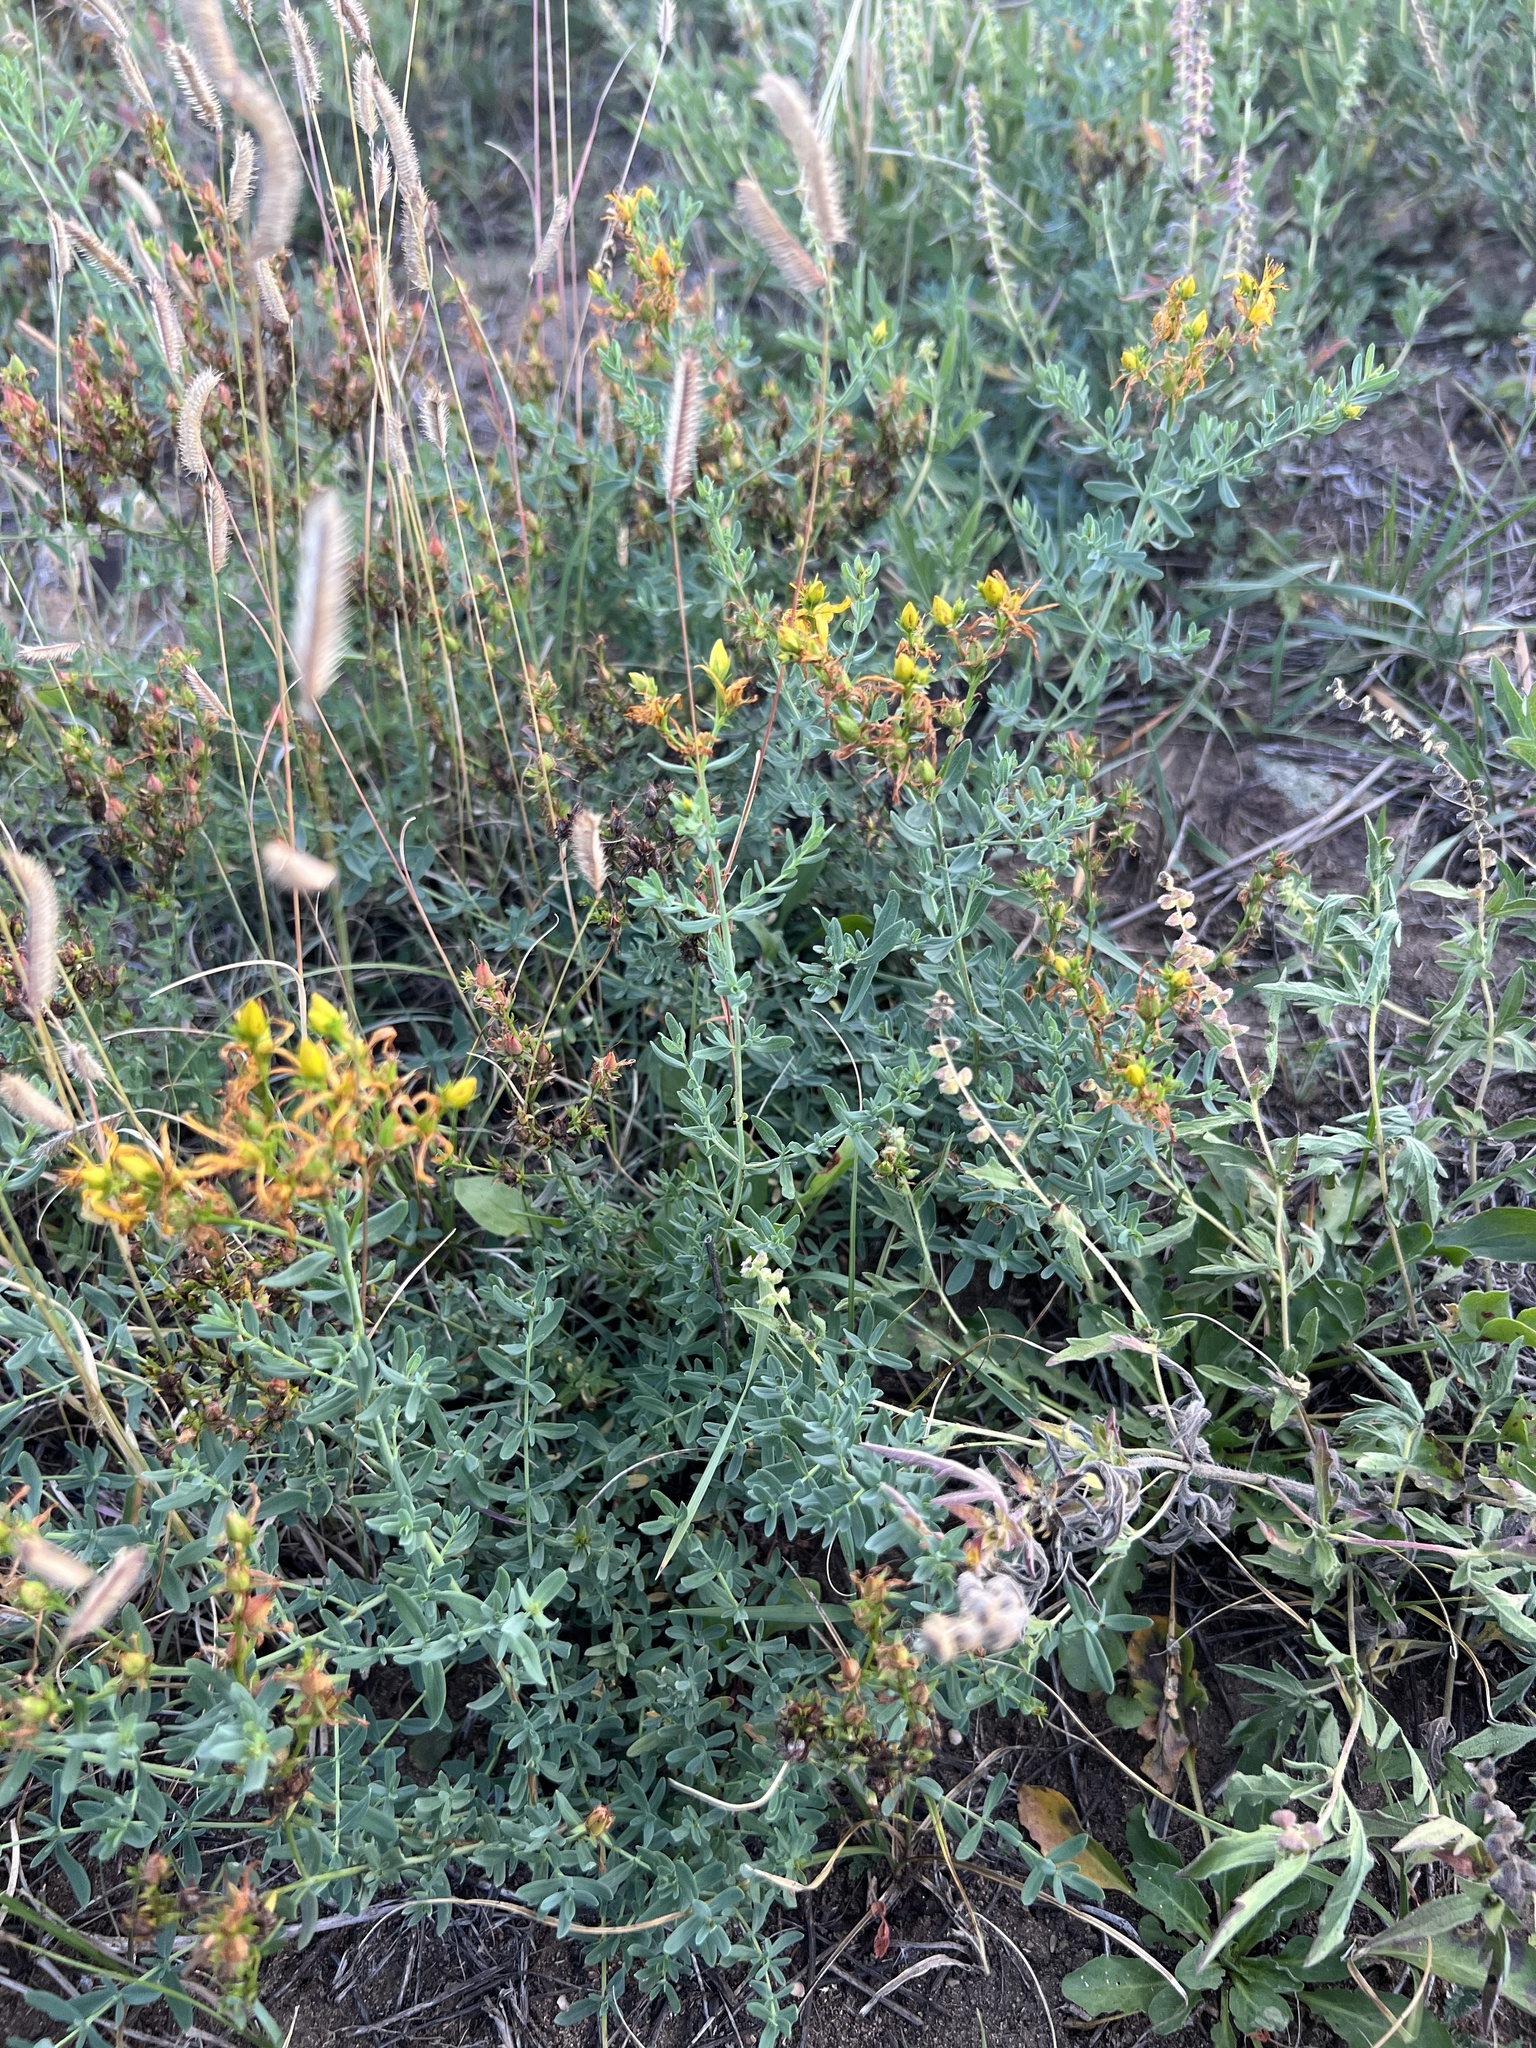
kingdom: Plantae
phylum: Tracheophyta
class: Magnoliopsida
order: Malpighiales
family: Hypericaceae
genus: Hypericum
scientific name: Hypericum perforatum
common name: Common st. johnswort
